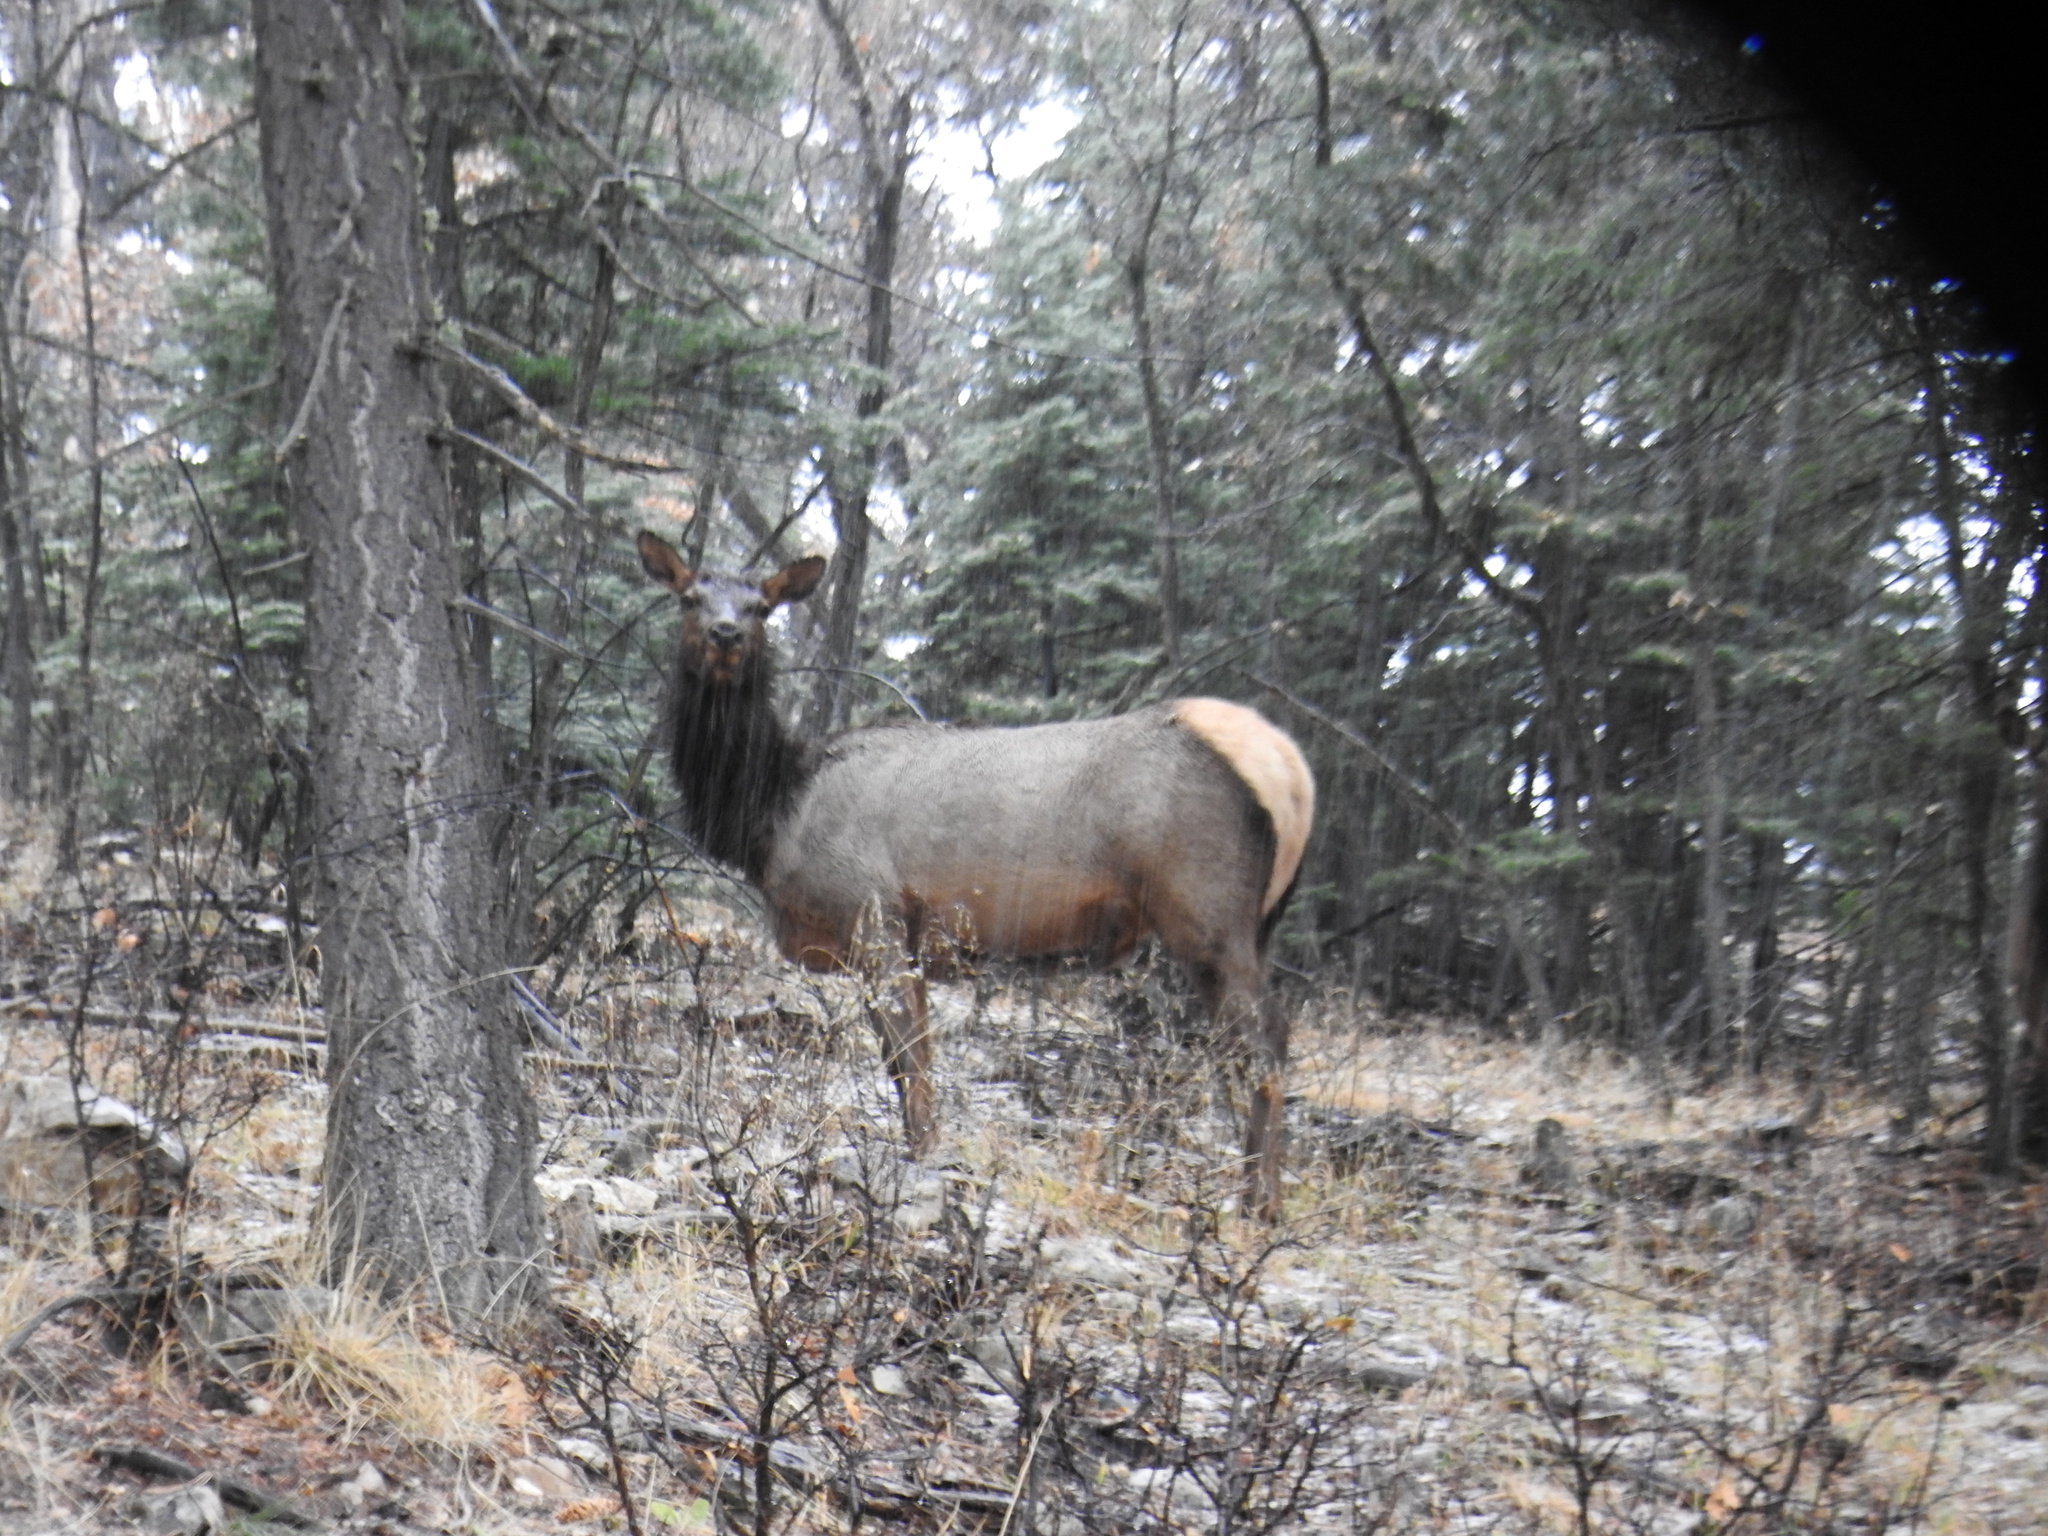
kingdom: Animalia
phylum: Chordata
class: Mammalia
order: Artiodactyla
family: Cervidae
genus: Cervus
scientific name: Cervus elaphus
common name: Red deer
